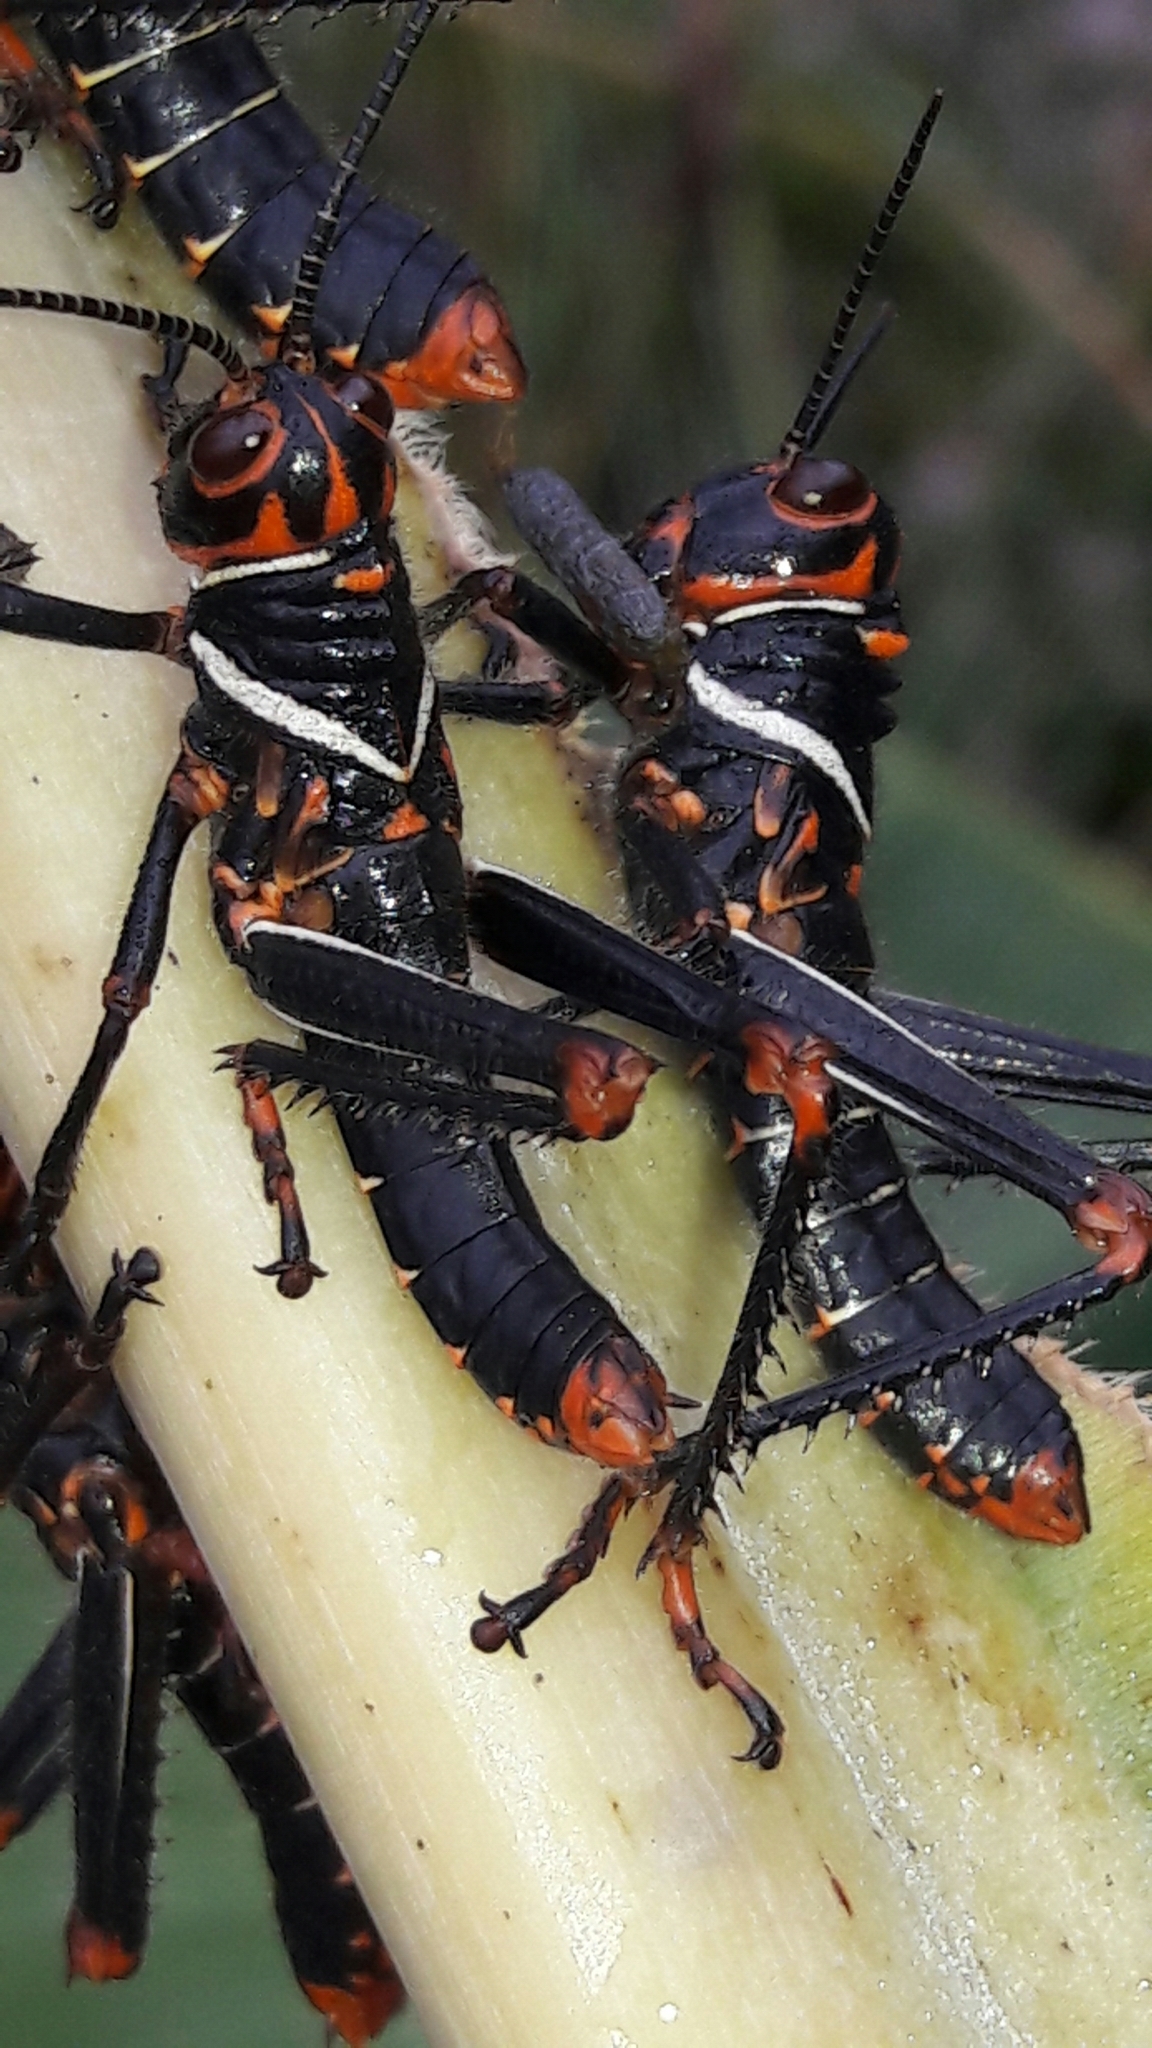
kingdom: Animalia
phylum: Arthropoda
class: Insecta
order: Orthoptera
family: Romaleidae
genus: Tropidacris
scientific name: Tropidacris collaris
